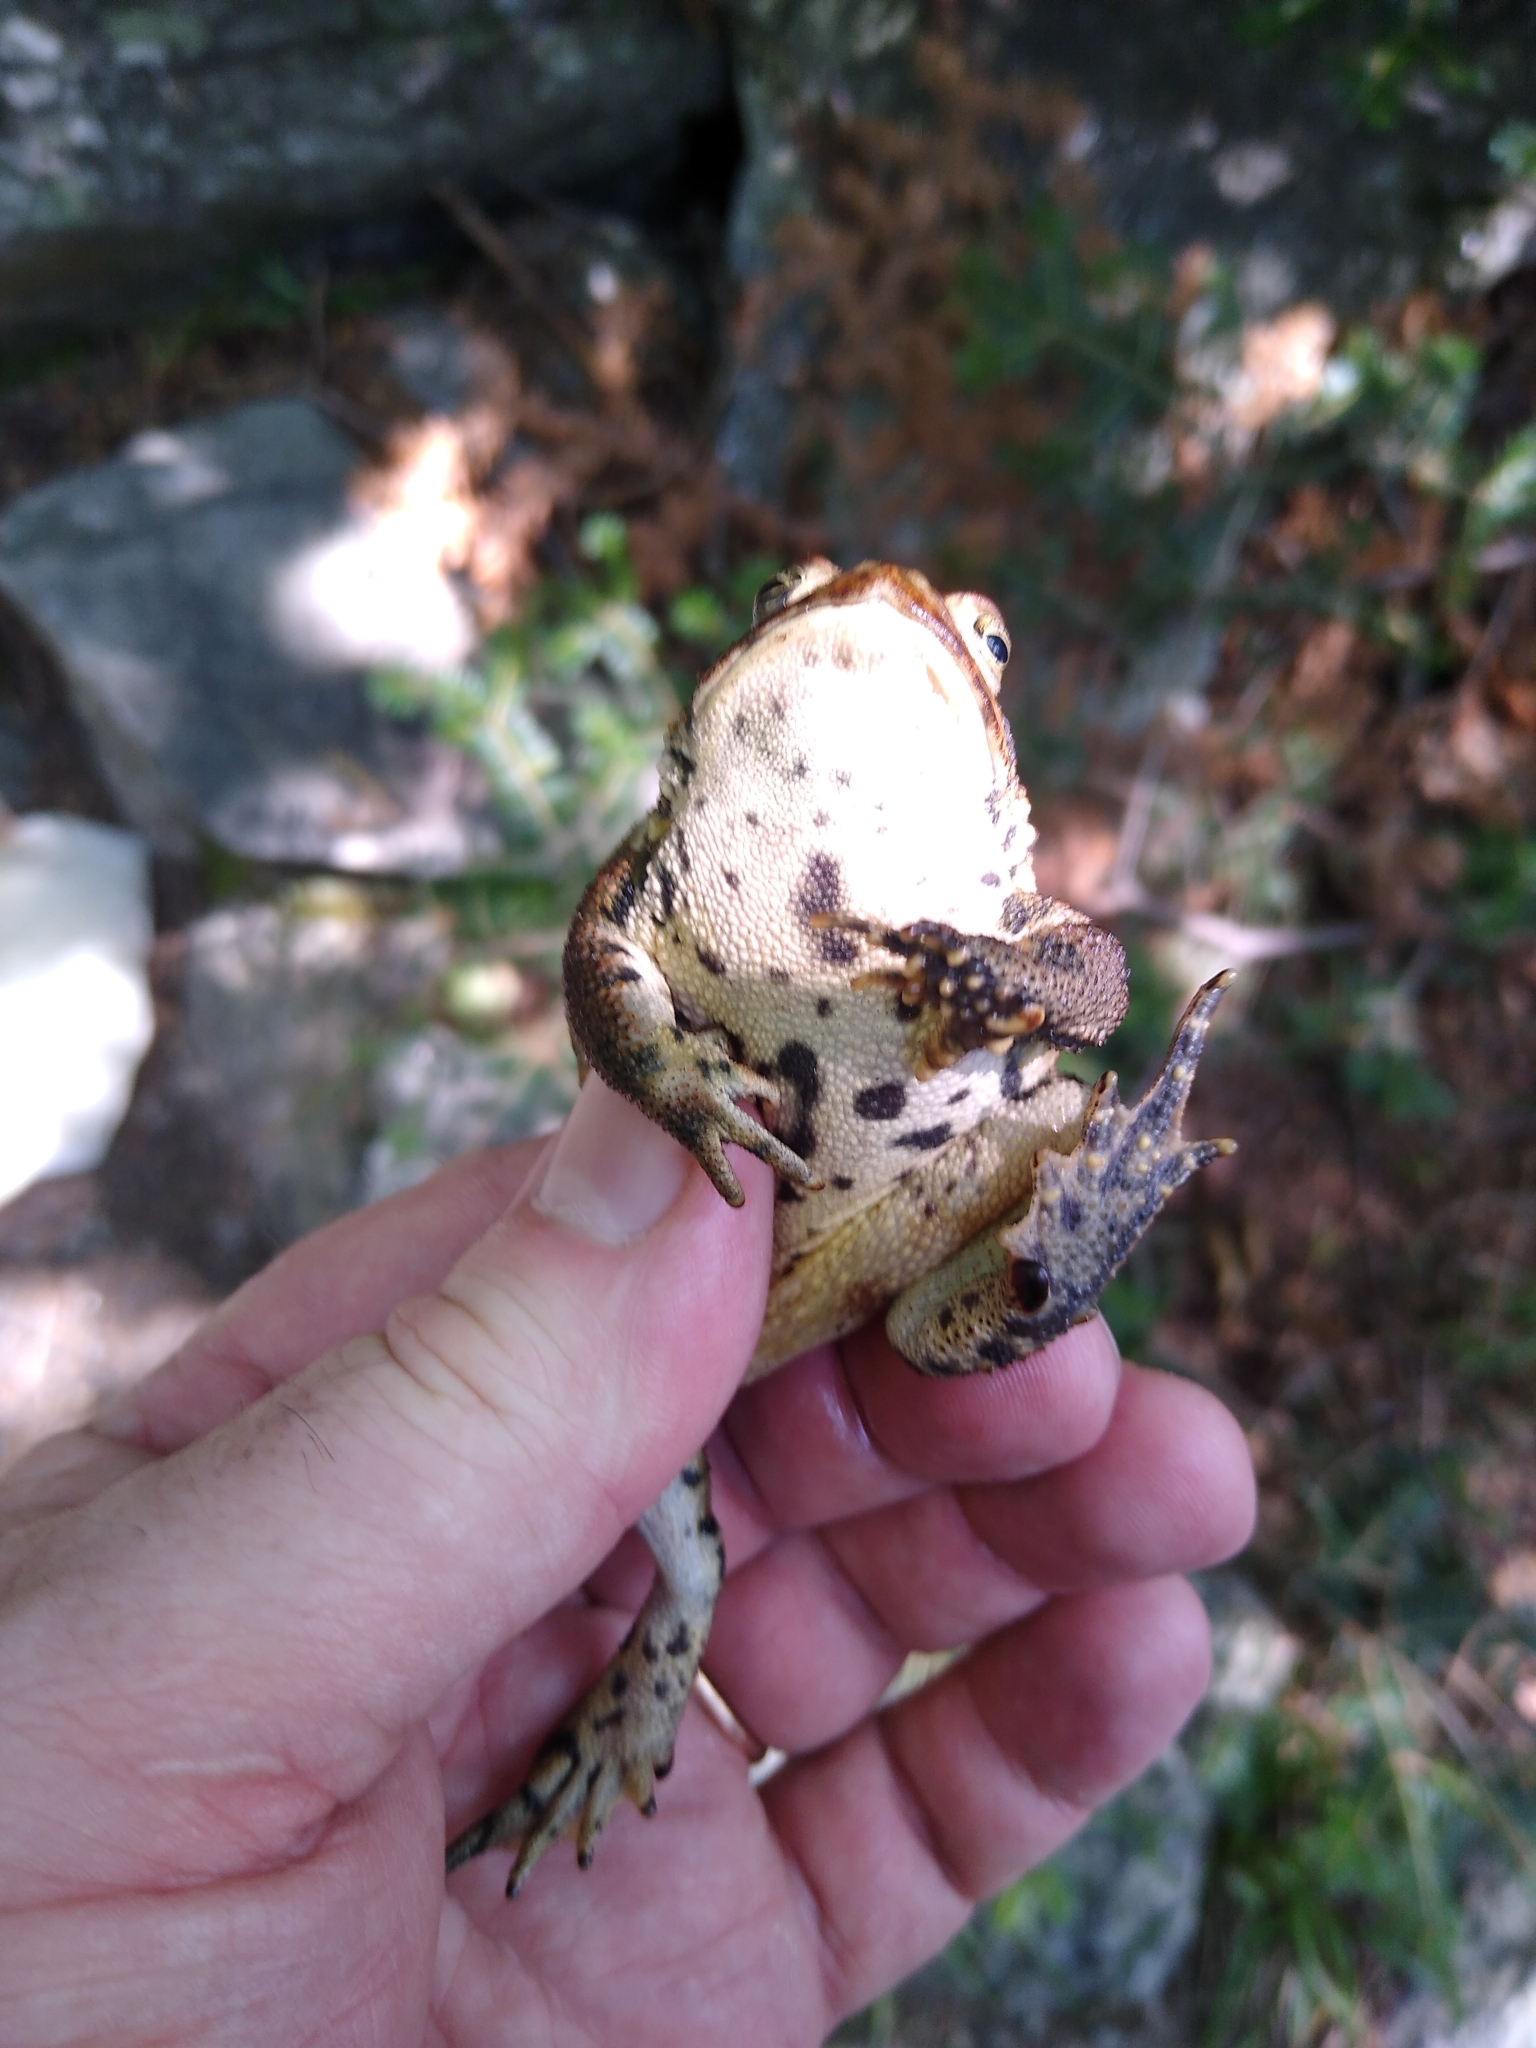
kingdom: Animalia
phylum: Chordata
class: Amphibia
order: Anura
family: Bufonidae
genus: Anaxyrus
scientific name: Anaxyrus americanus
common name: American toad
